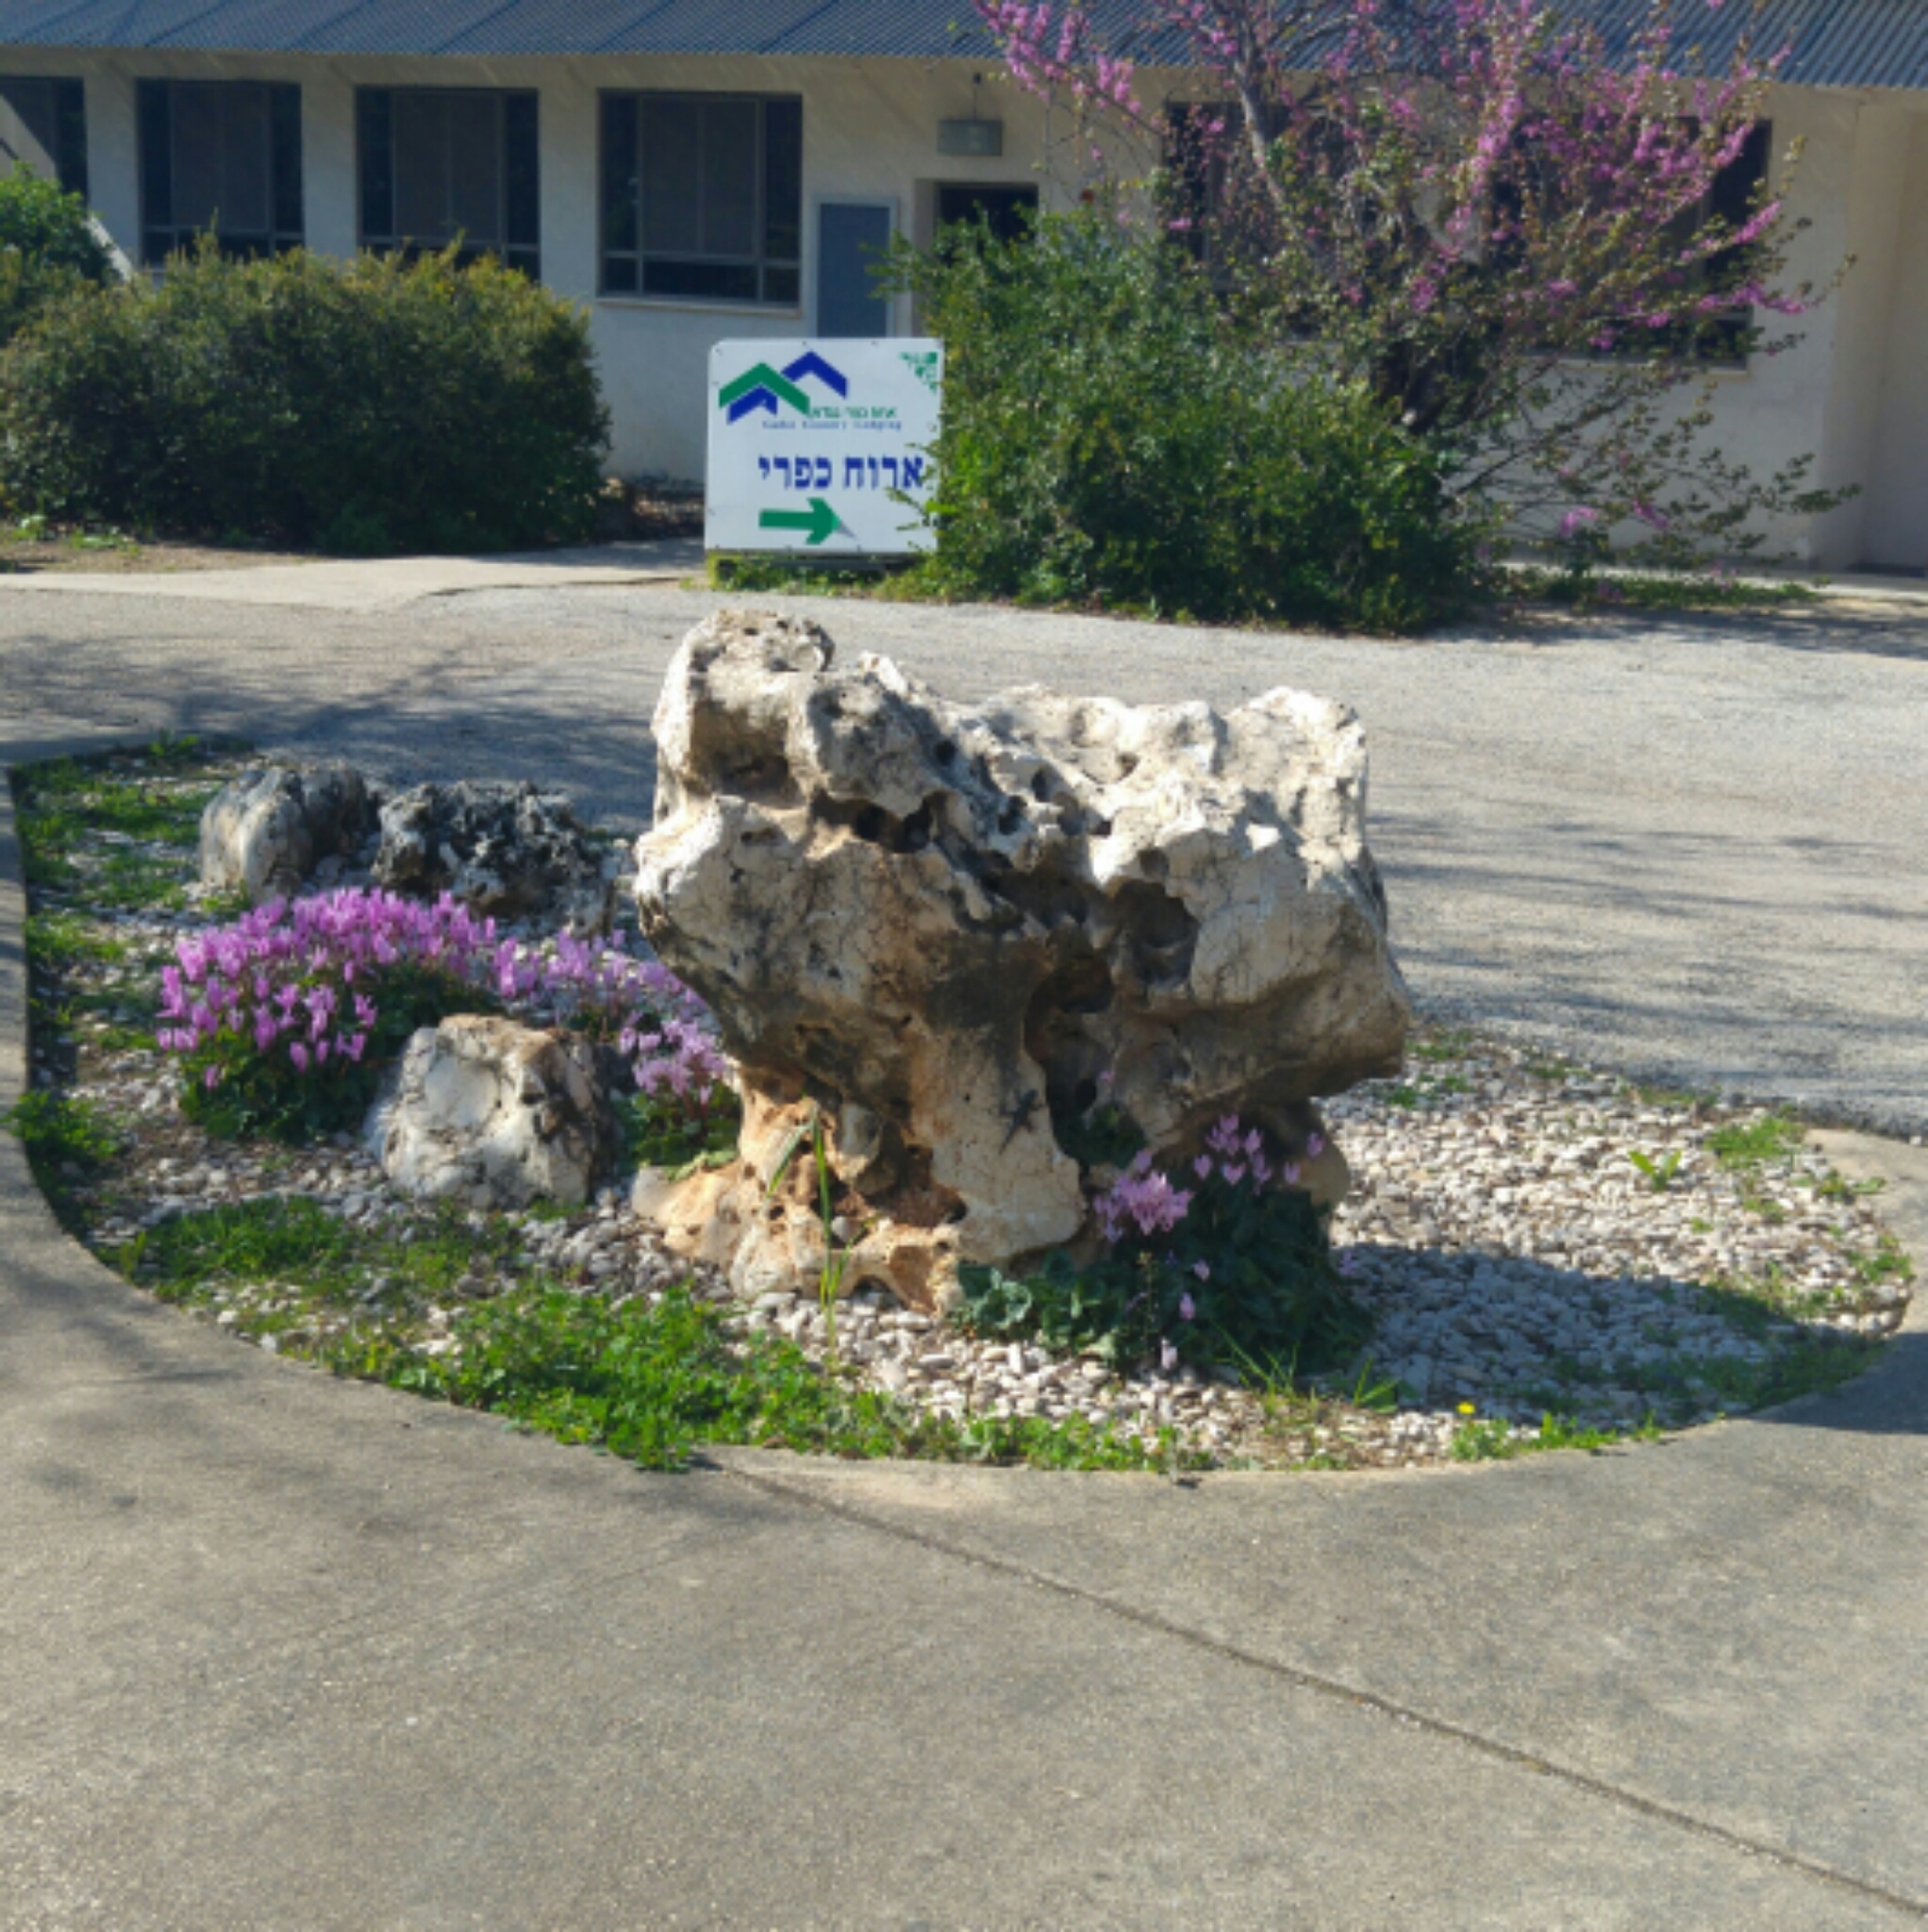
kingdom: Animalia
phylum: Chordata
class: Squamata
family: Agamidae
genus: Laudakia
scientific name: Laudakia vulgaris
